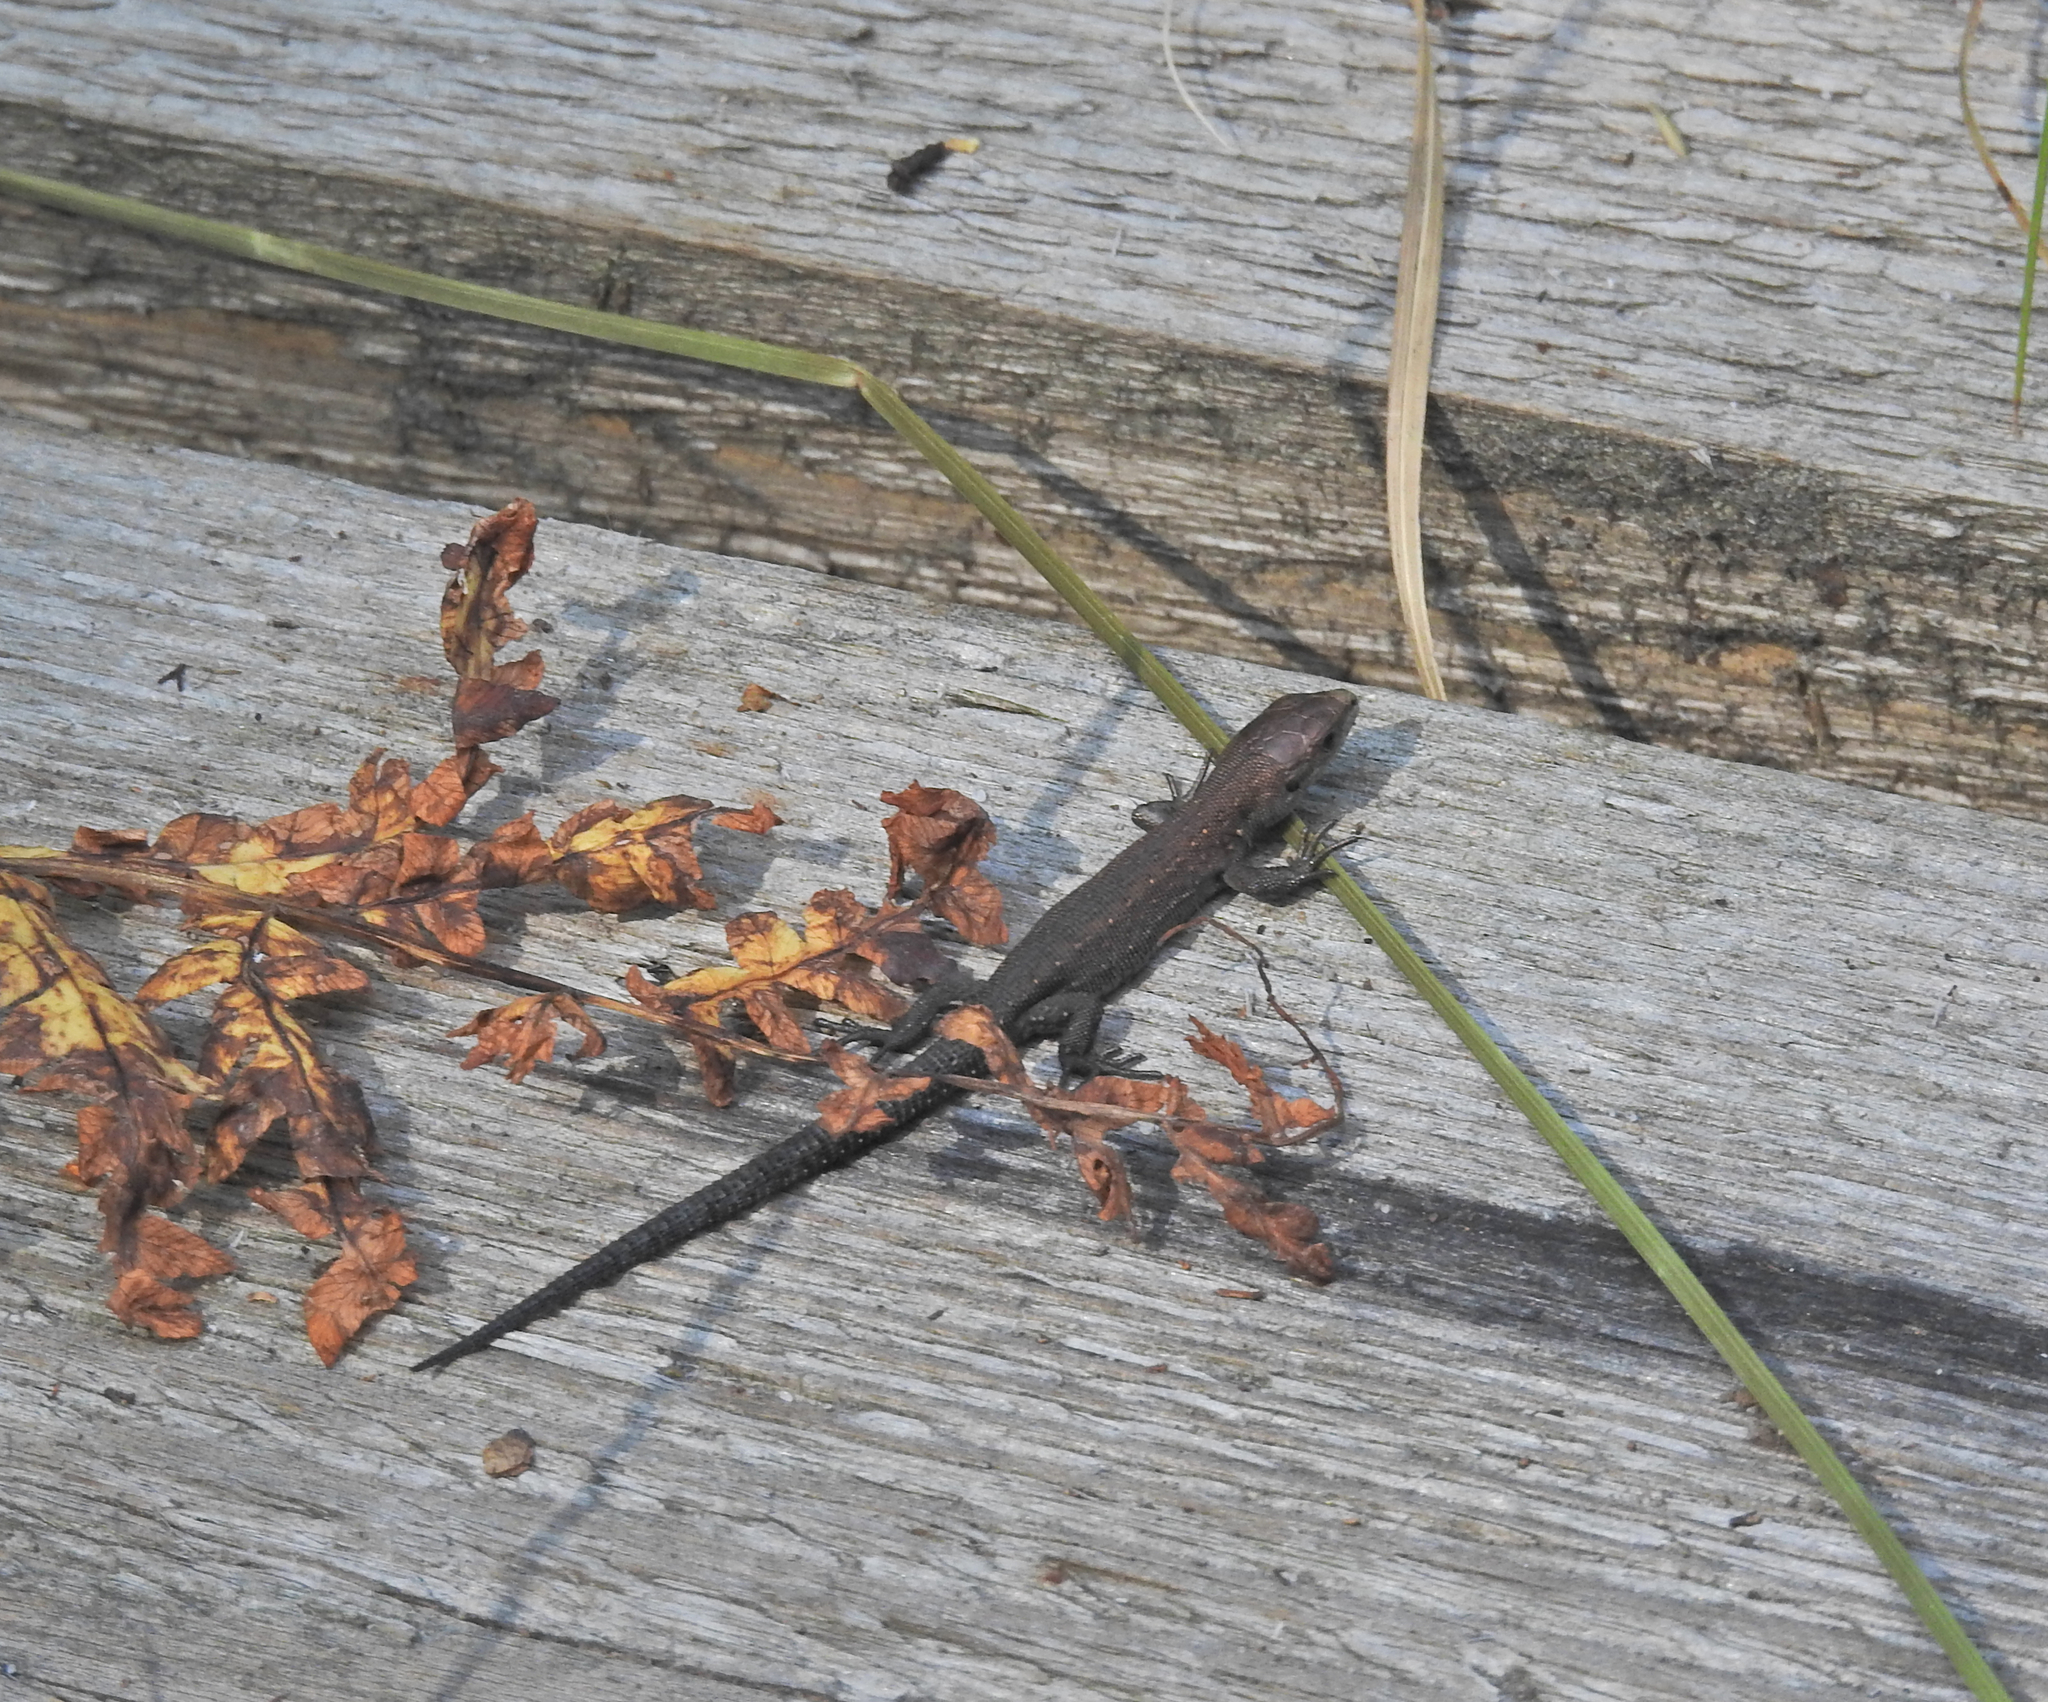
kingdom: Animalia
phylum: Chordata
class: Squamata
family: Lacertidae
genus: Zootoca
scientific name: Zootoca vivipara
